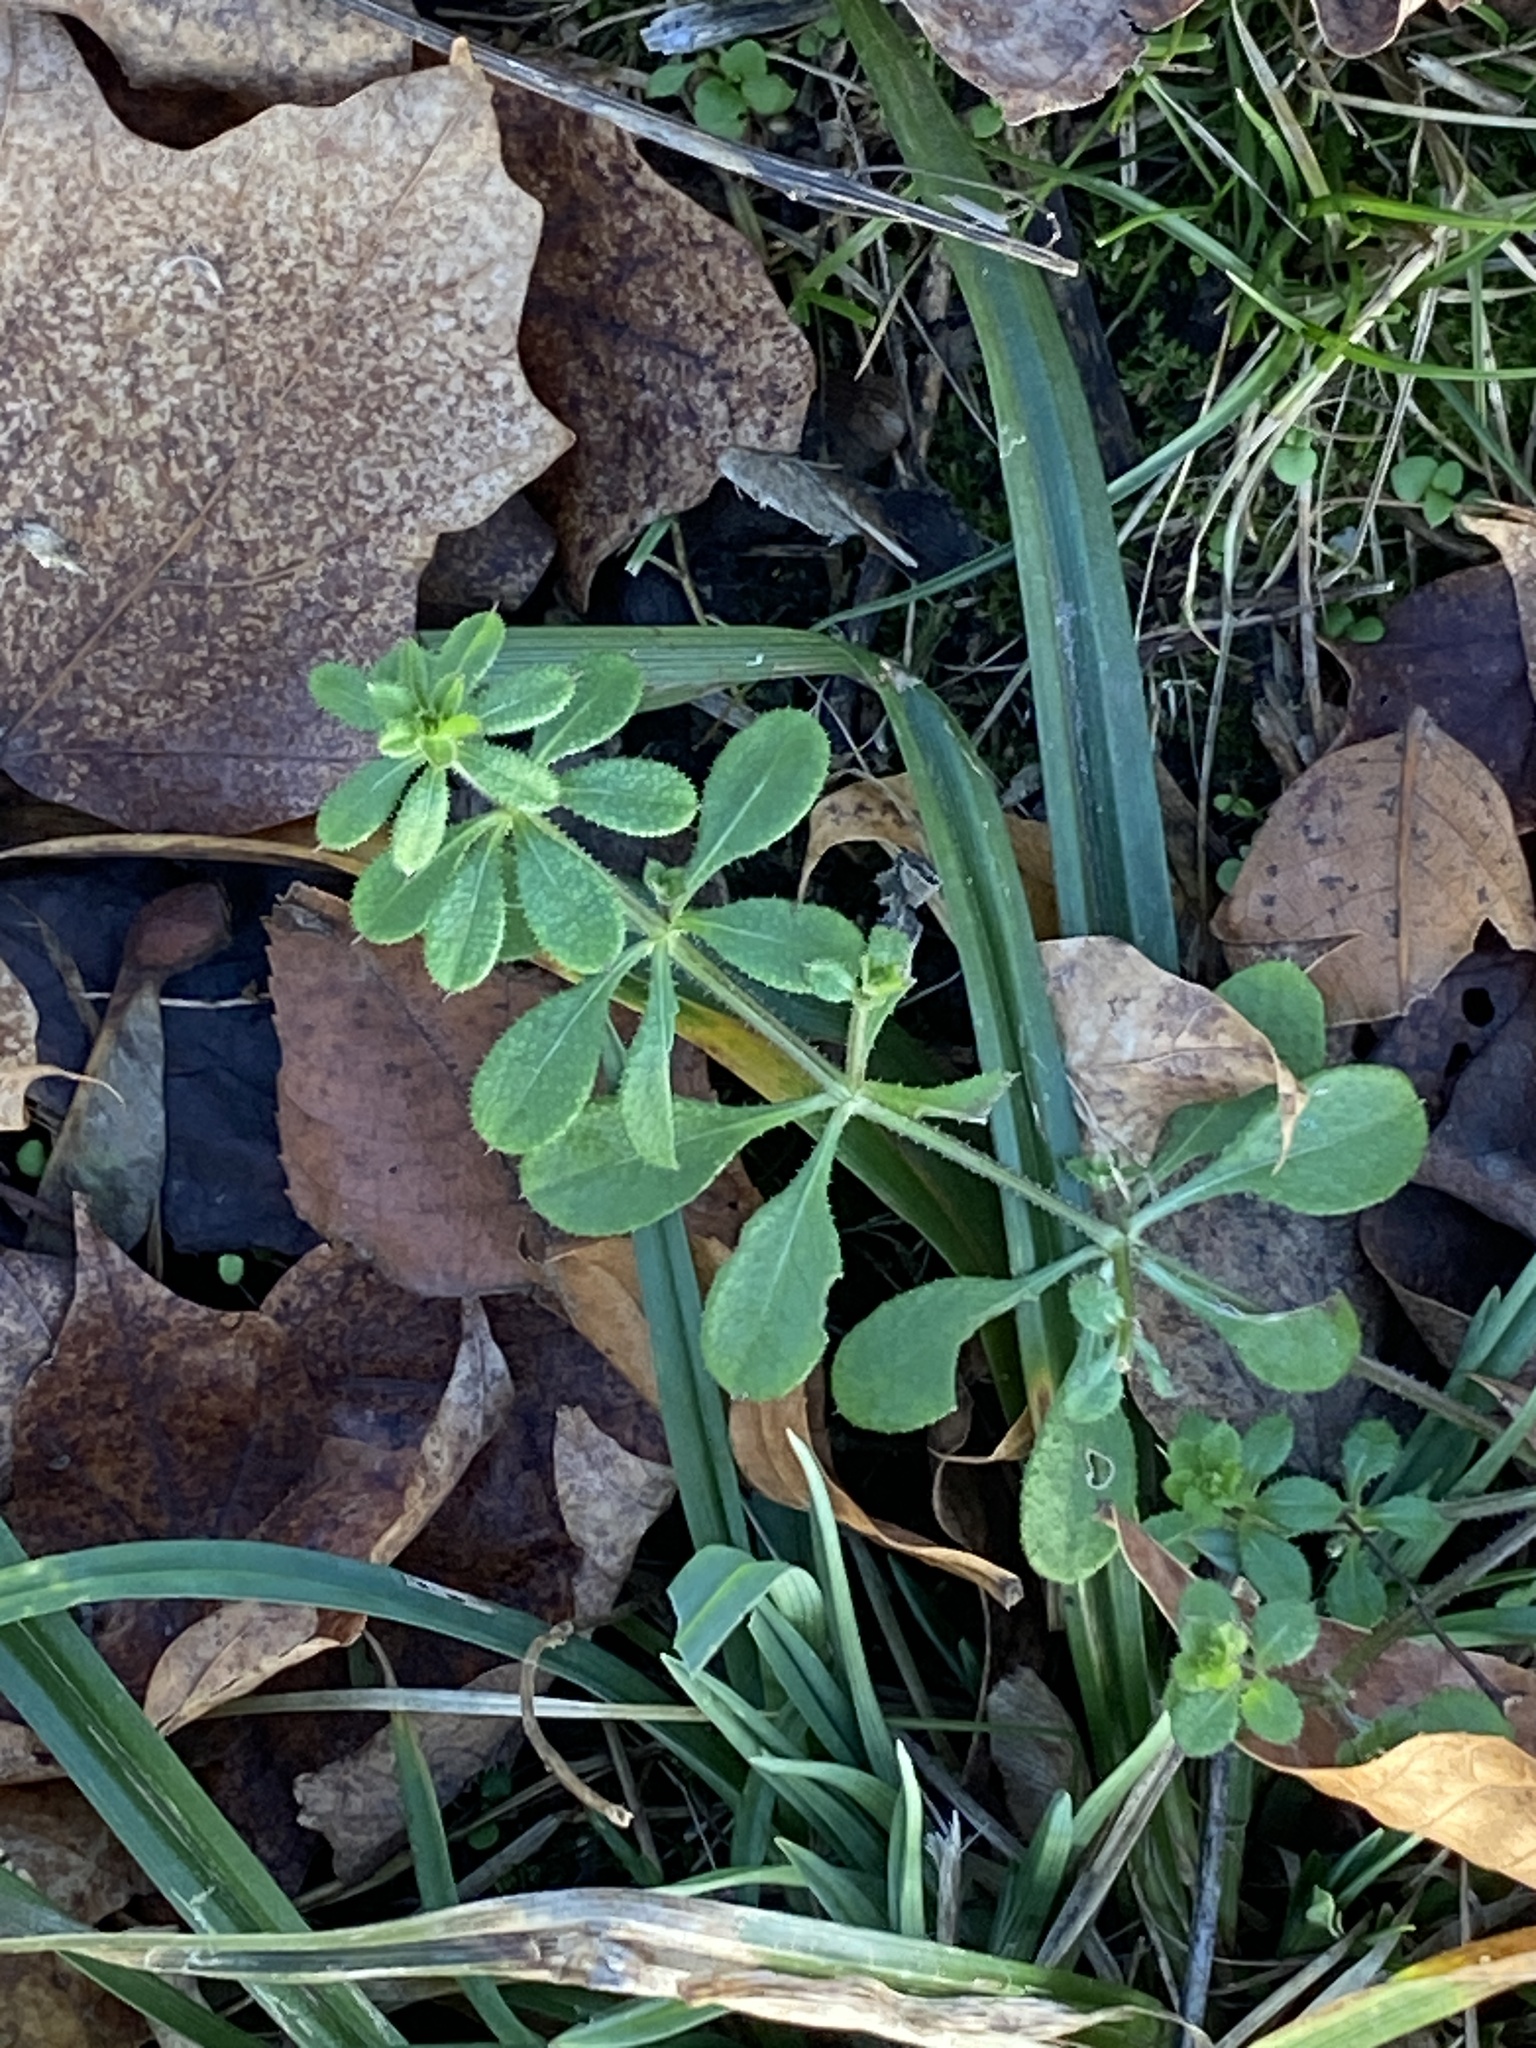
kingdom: Plantae
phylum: Tracheophyta
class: Magnoliopsida
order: Gentianales
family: Rubiaceae
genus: Galium
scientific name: Galium aparine
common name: Cleavers
